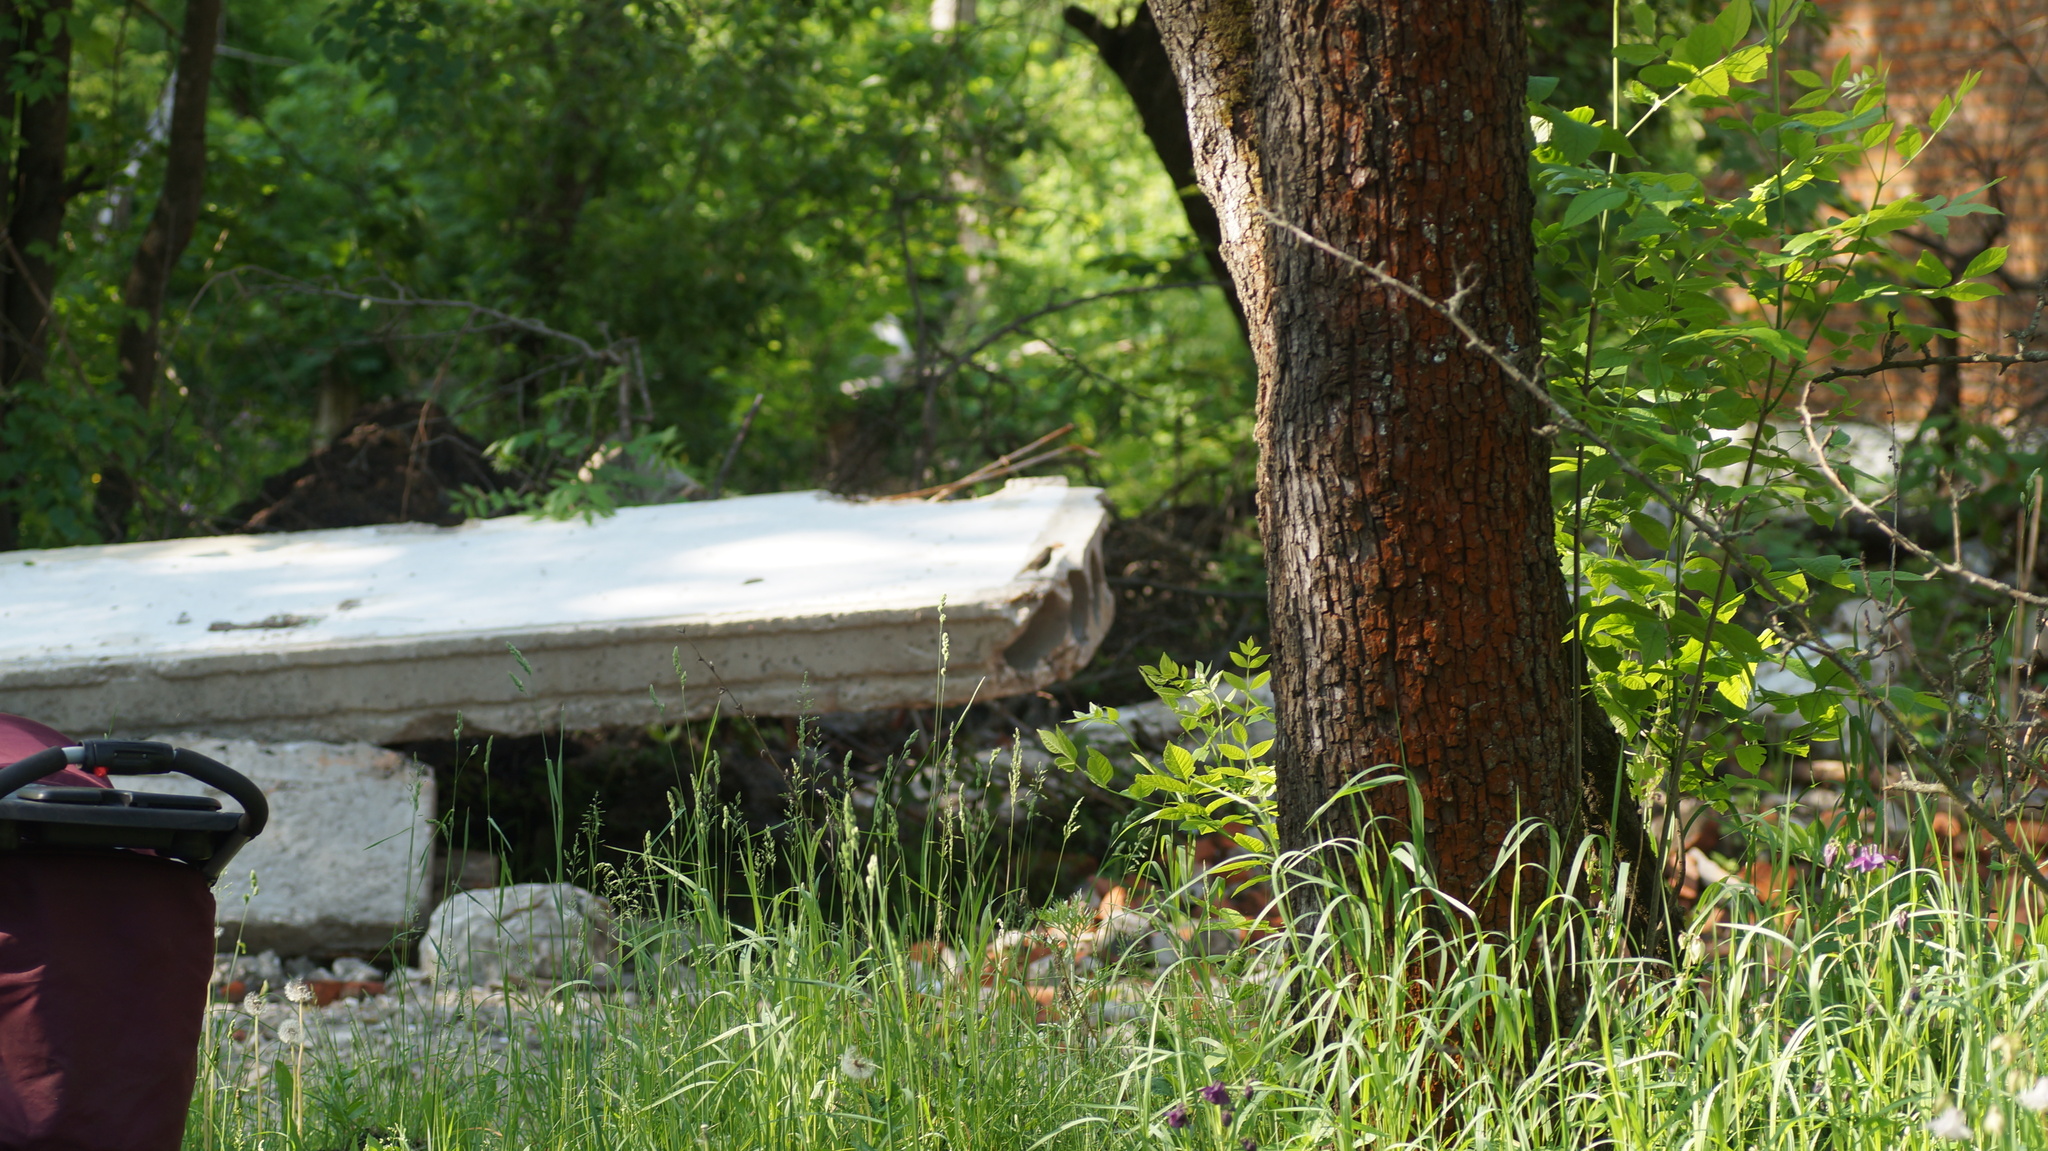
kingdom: Animalia
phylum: Chordata
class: Aves
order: Passeriformes
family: Muscicapidae
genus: Phoenicurus
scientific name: Phoenicurus ochruros
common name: Black redstart
